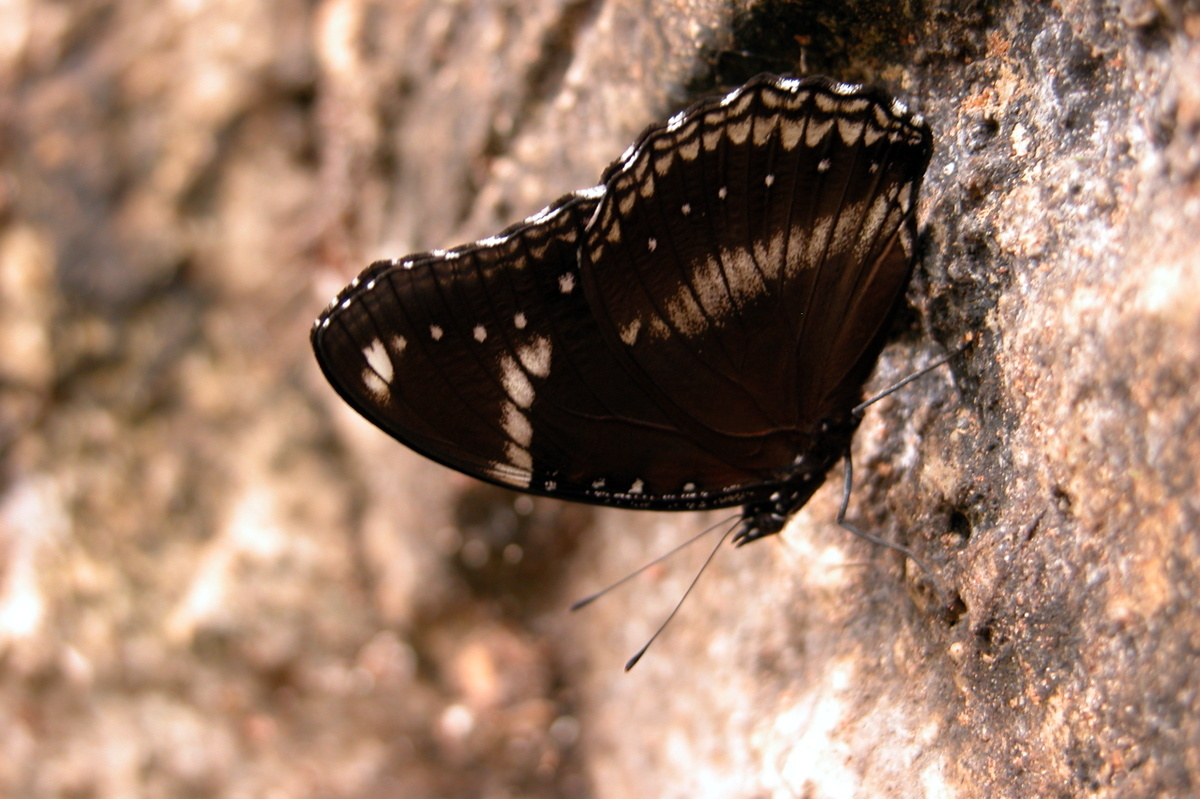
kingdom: Animalia
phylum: Arthropoda
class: Insecta
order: Lepidoptera
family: Nymphalidae
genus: Hypolimnas
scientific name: Hypolimnas bolina
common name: Great eggfly
